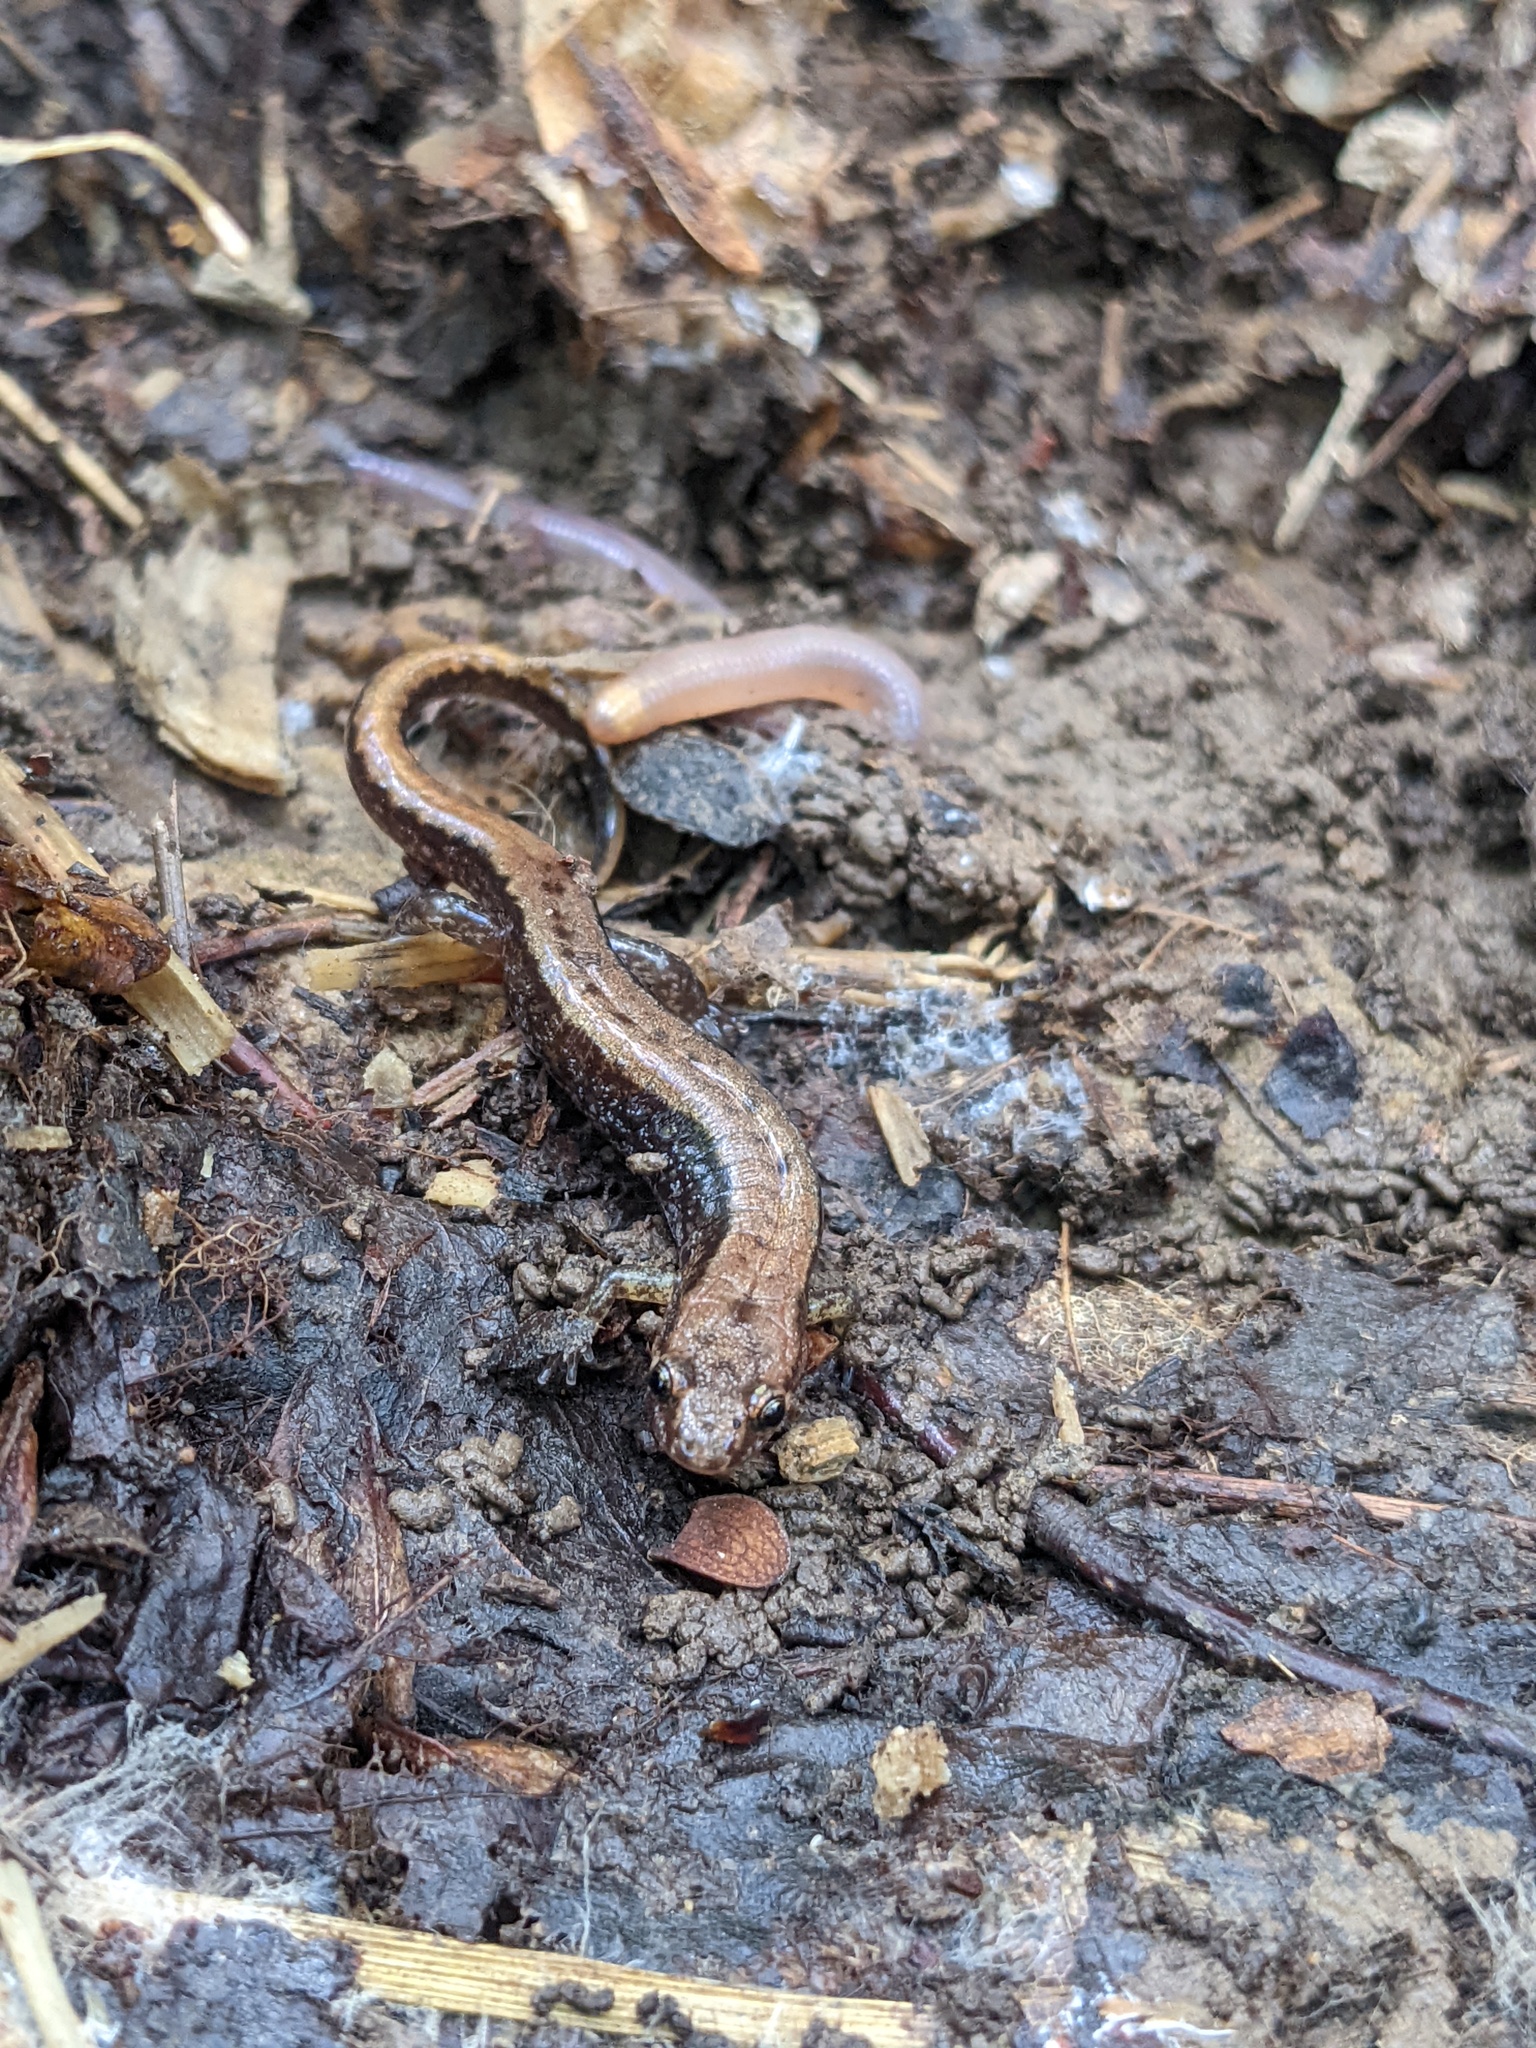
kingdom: Animalia
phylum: Chordata
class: Amphibia
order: Caudata
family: Plethodontidae
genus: Desmognathus
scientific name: Desmognathus ochrophaeus
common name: Allegheny mountain dusky salamander
